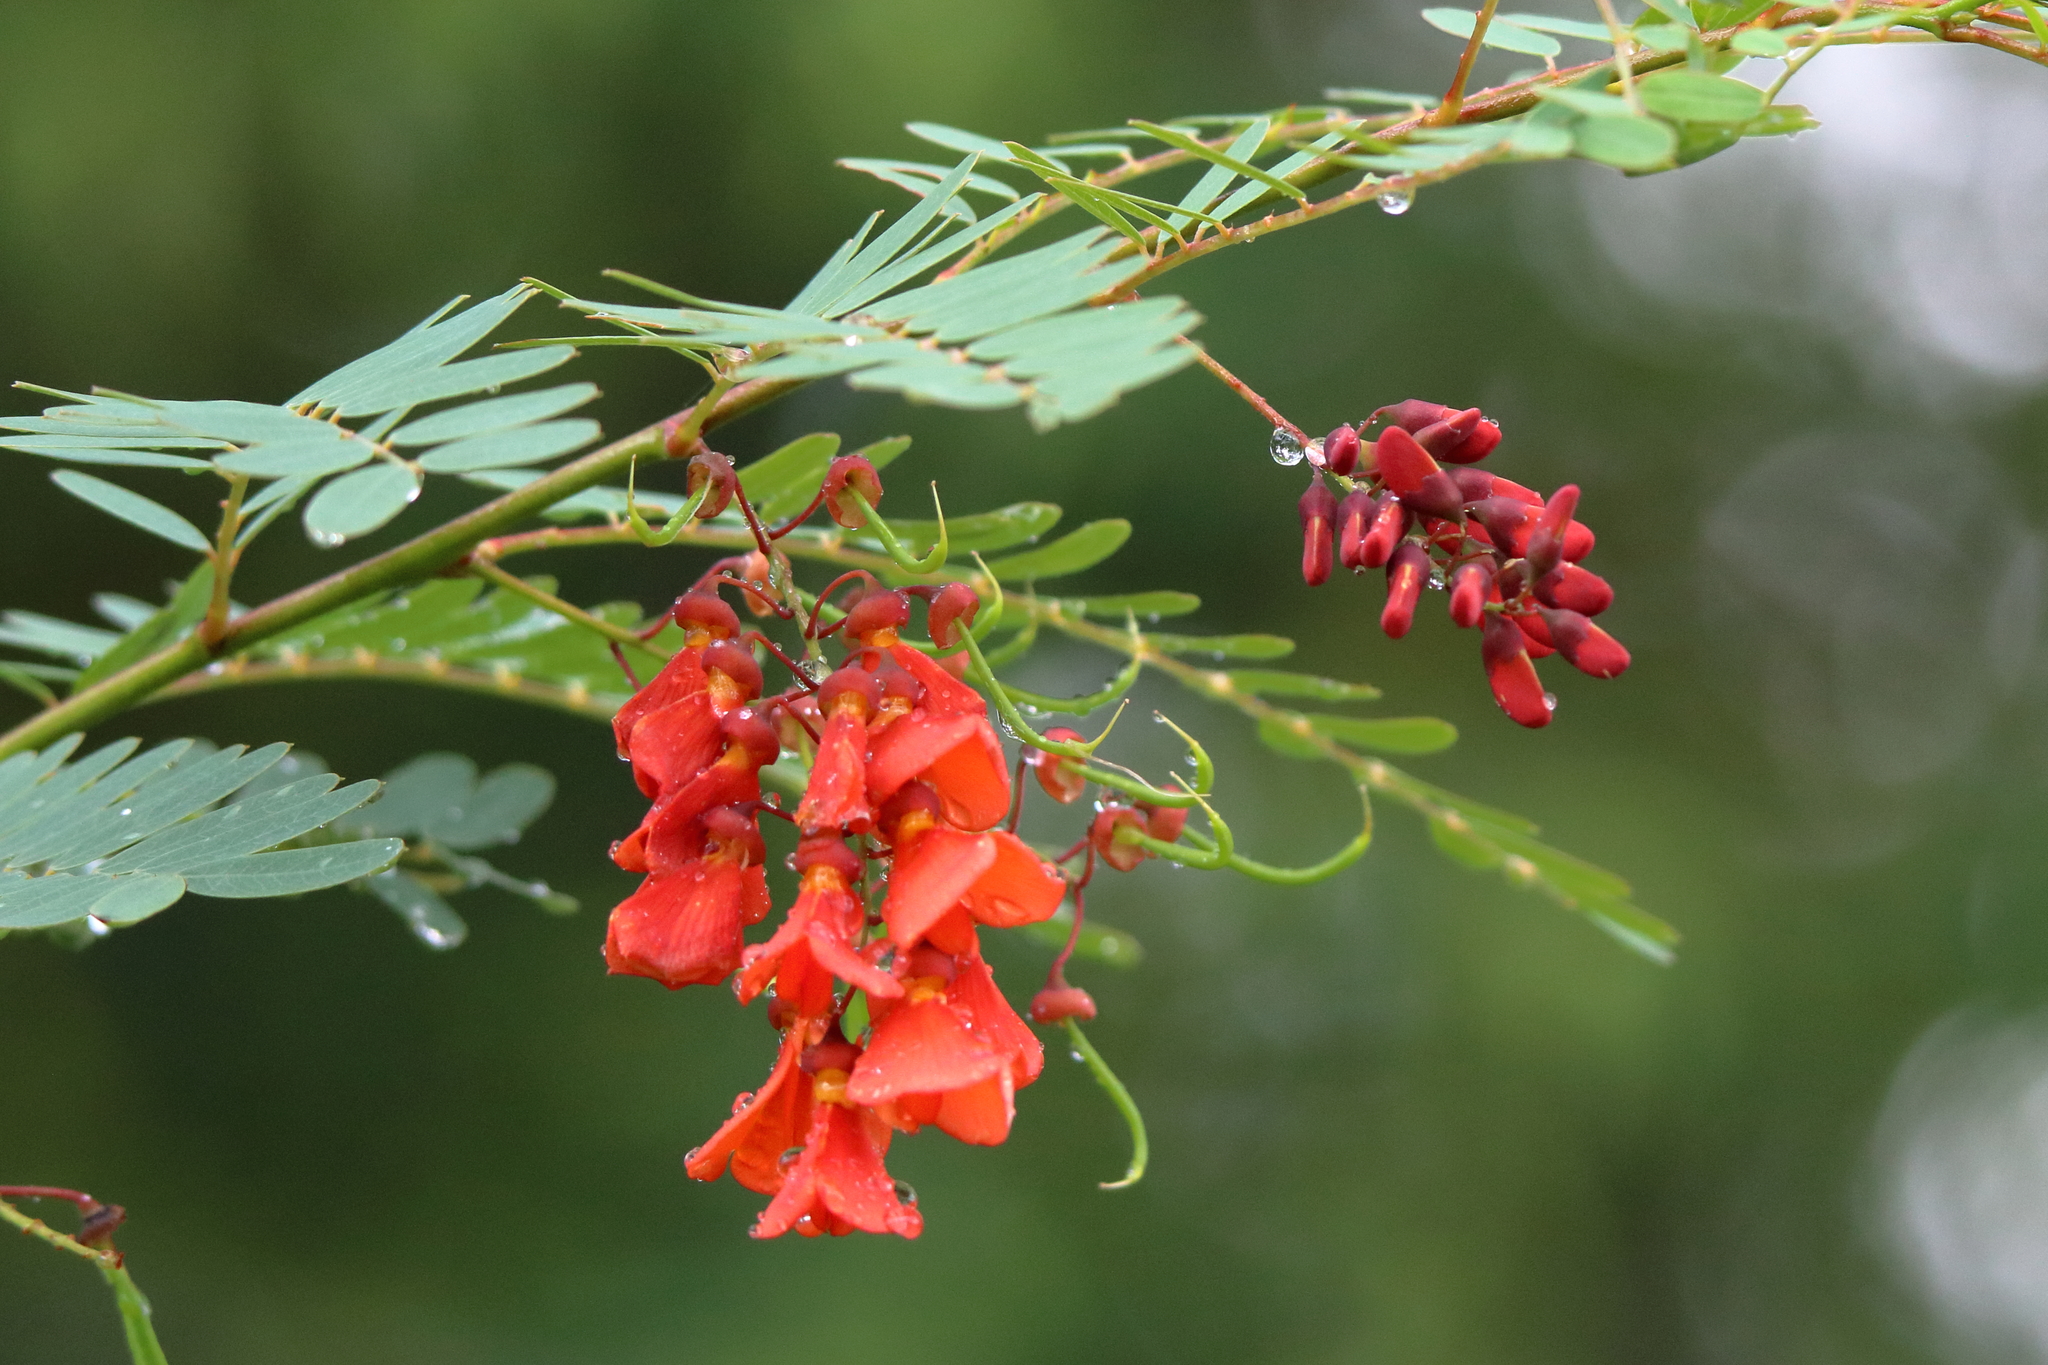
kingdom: Plantae
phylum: Tracheophyta
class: Magnoliopsida
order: Fabales
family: Fabaceae
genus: Sesbania
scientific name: Sesbania punicea
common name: Rattlebox
